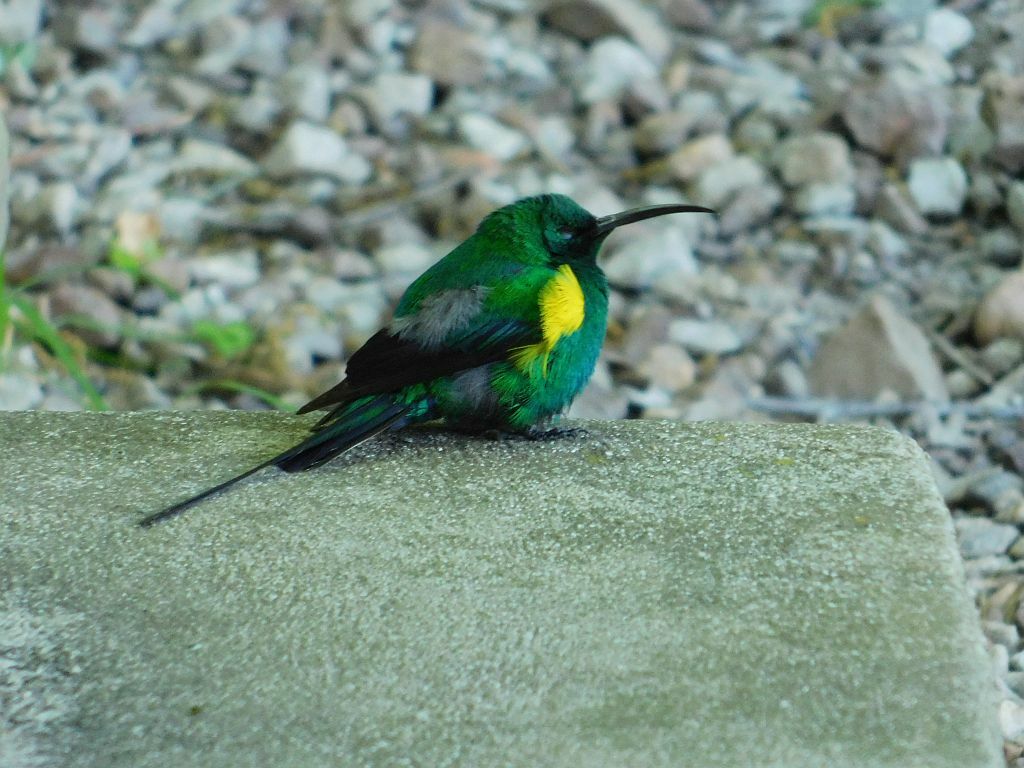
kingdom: Animalia
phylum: Chordata
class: Aves
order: Passeriformes
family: Nectariniidae
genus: Nectarinia
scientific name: Nectarinia famosa
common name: Malachite sunbird
